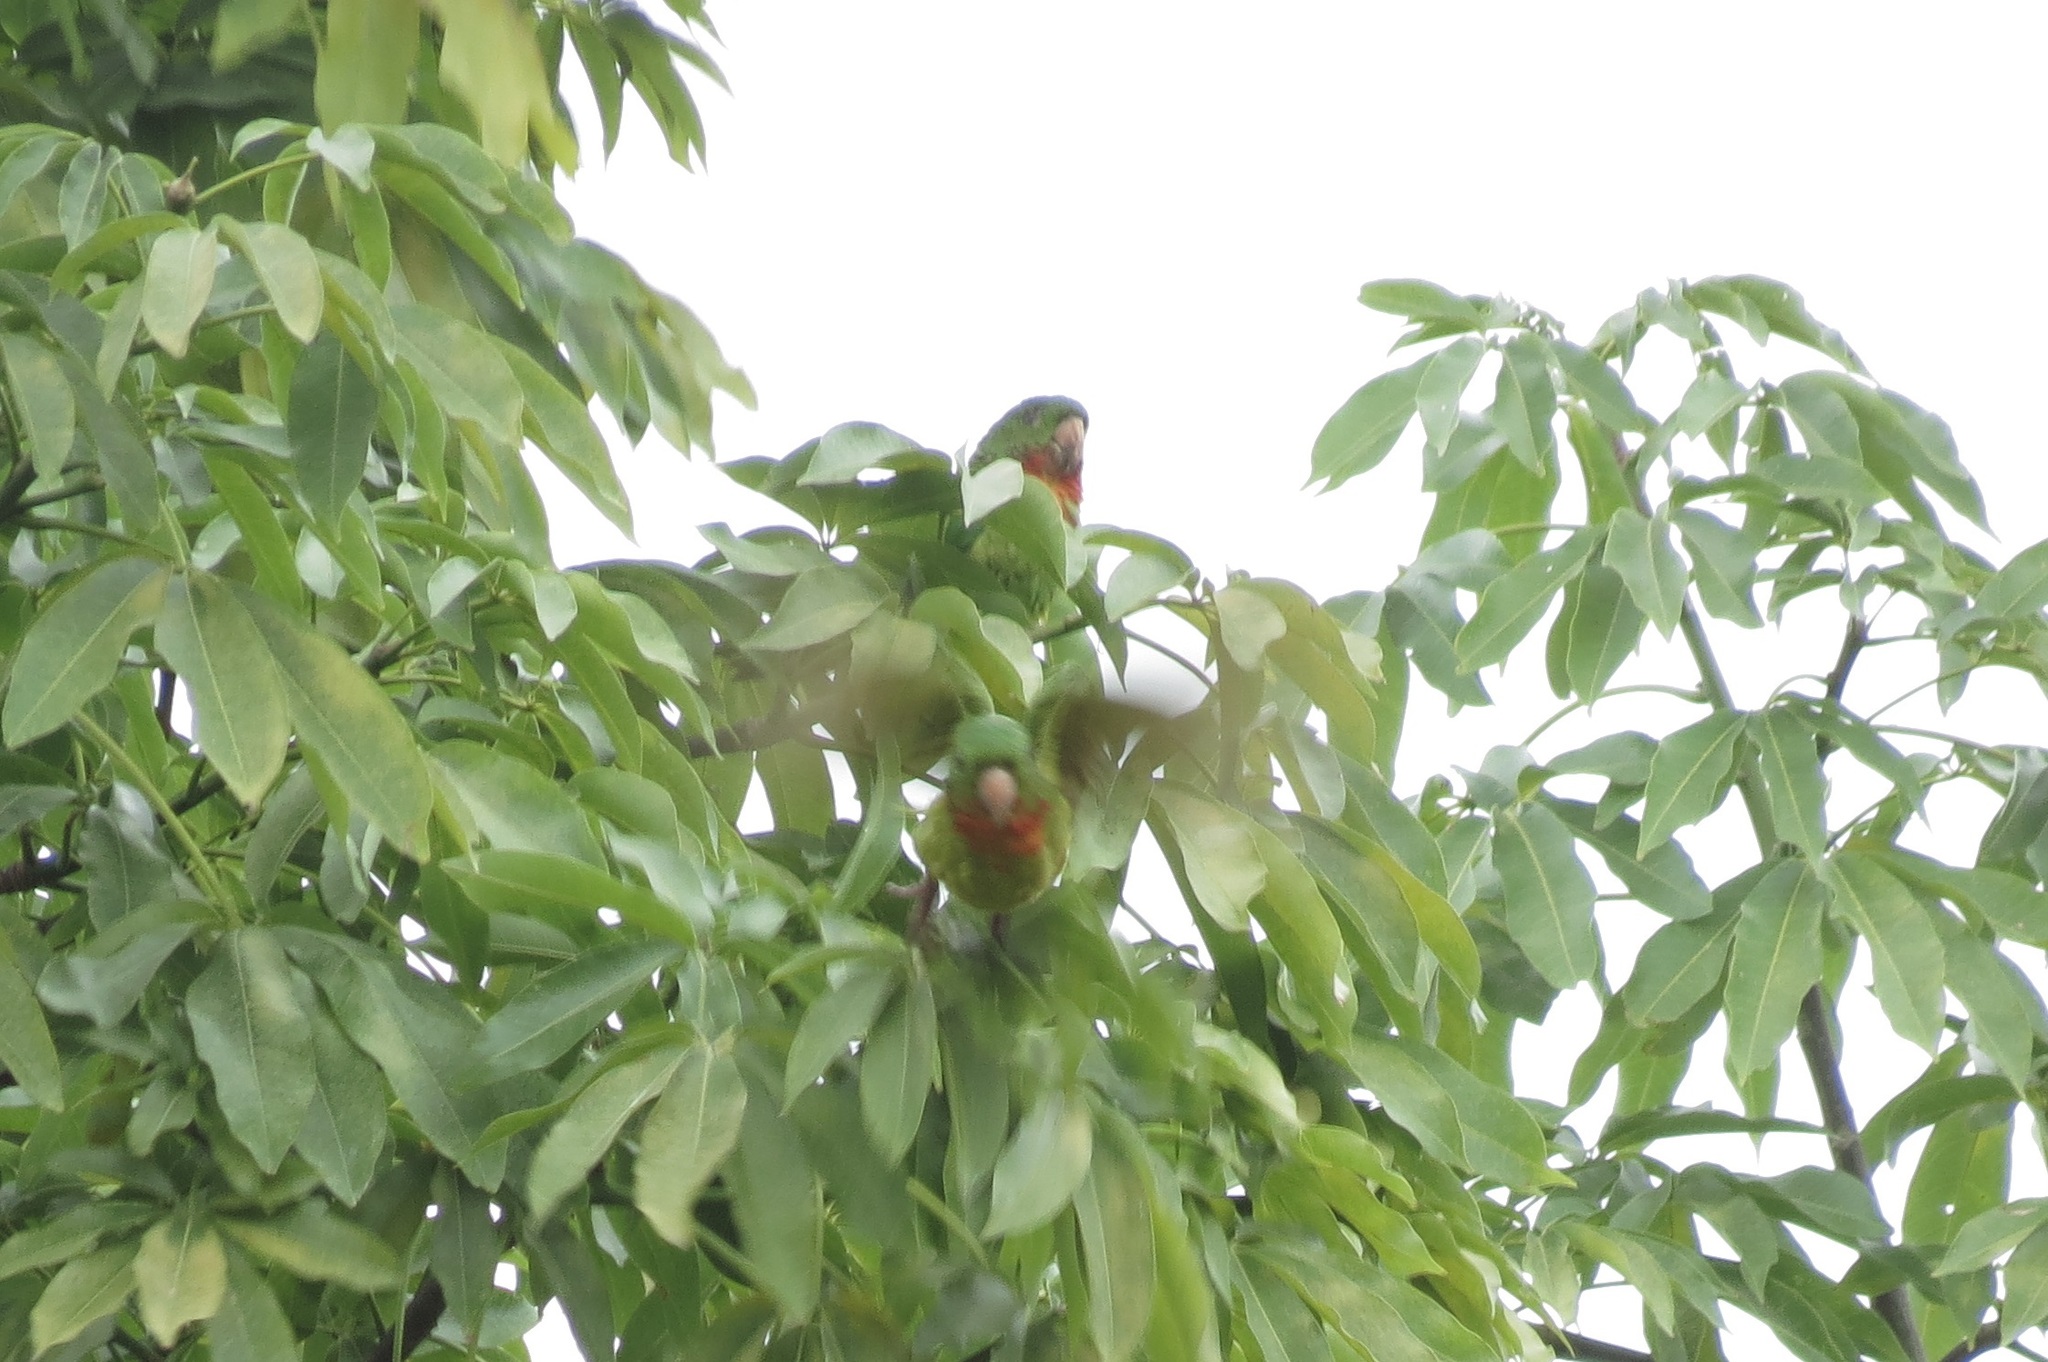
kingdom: Animalia
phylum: Chordata
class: Aves
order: Psittaciformes
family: Psittacidae
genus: Aratinga
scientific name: Aratinga holochlora
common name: Green parakeet
